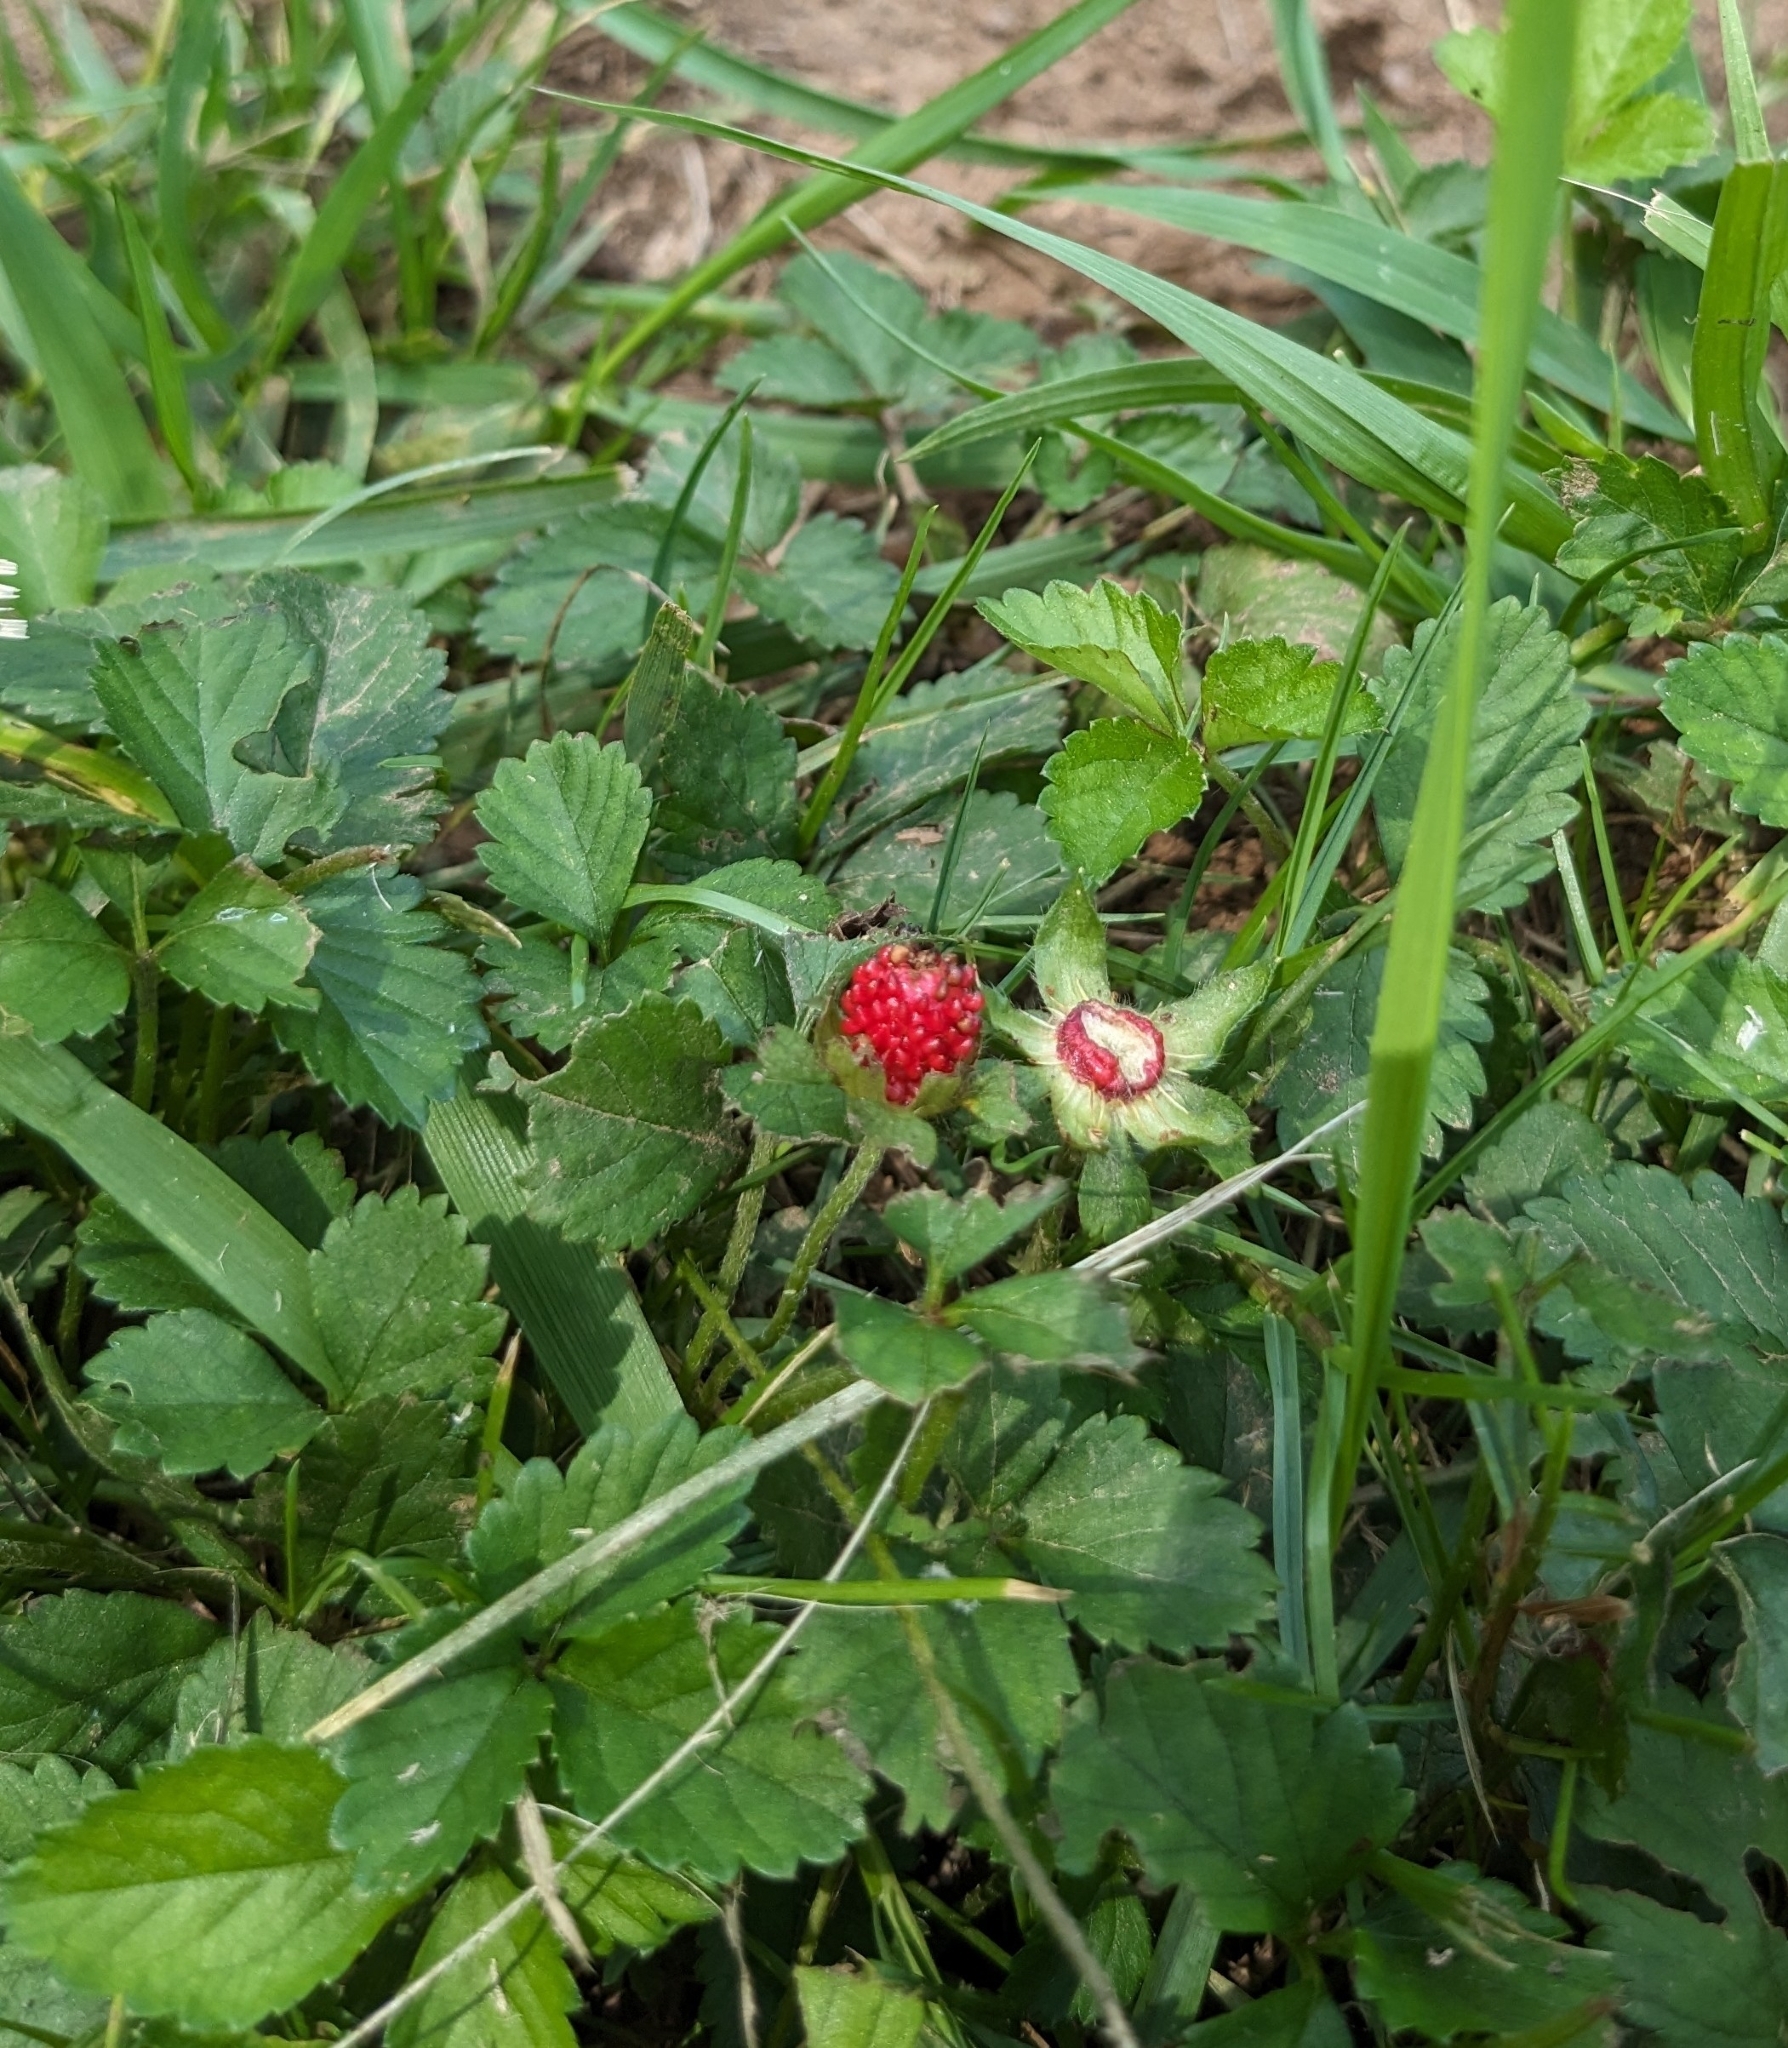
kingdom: Plantae
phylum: Tracheophyta
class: Magnoliopsida
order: Rosales
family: Rosaceae
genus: Potentilla
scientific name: Potentilla indica
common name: Yellow-flowered strawberry
